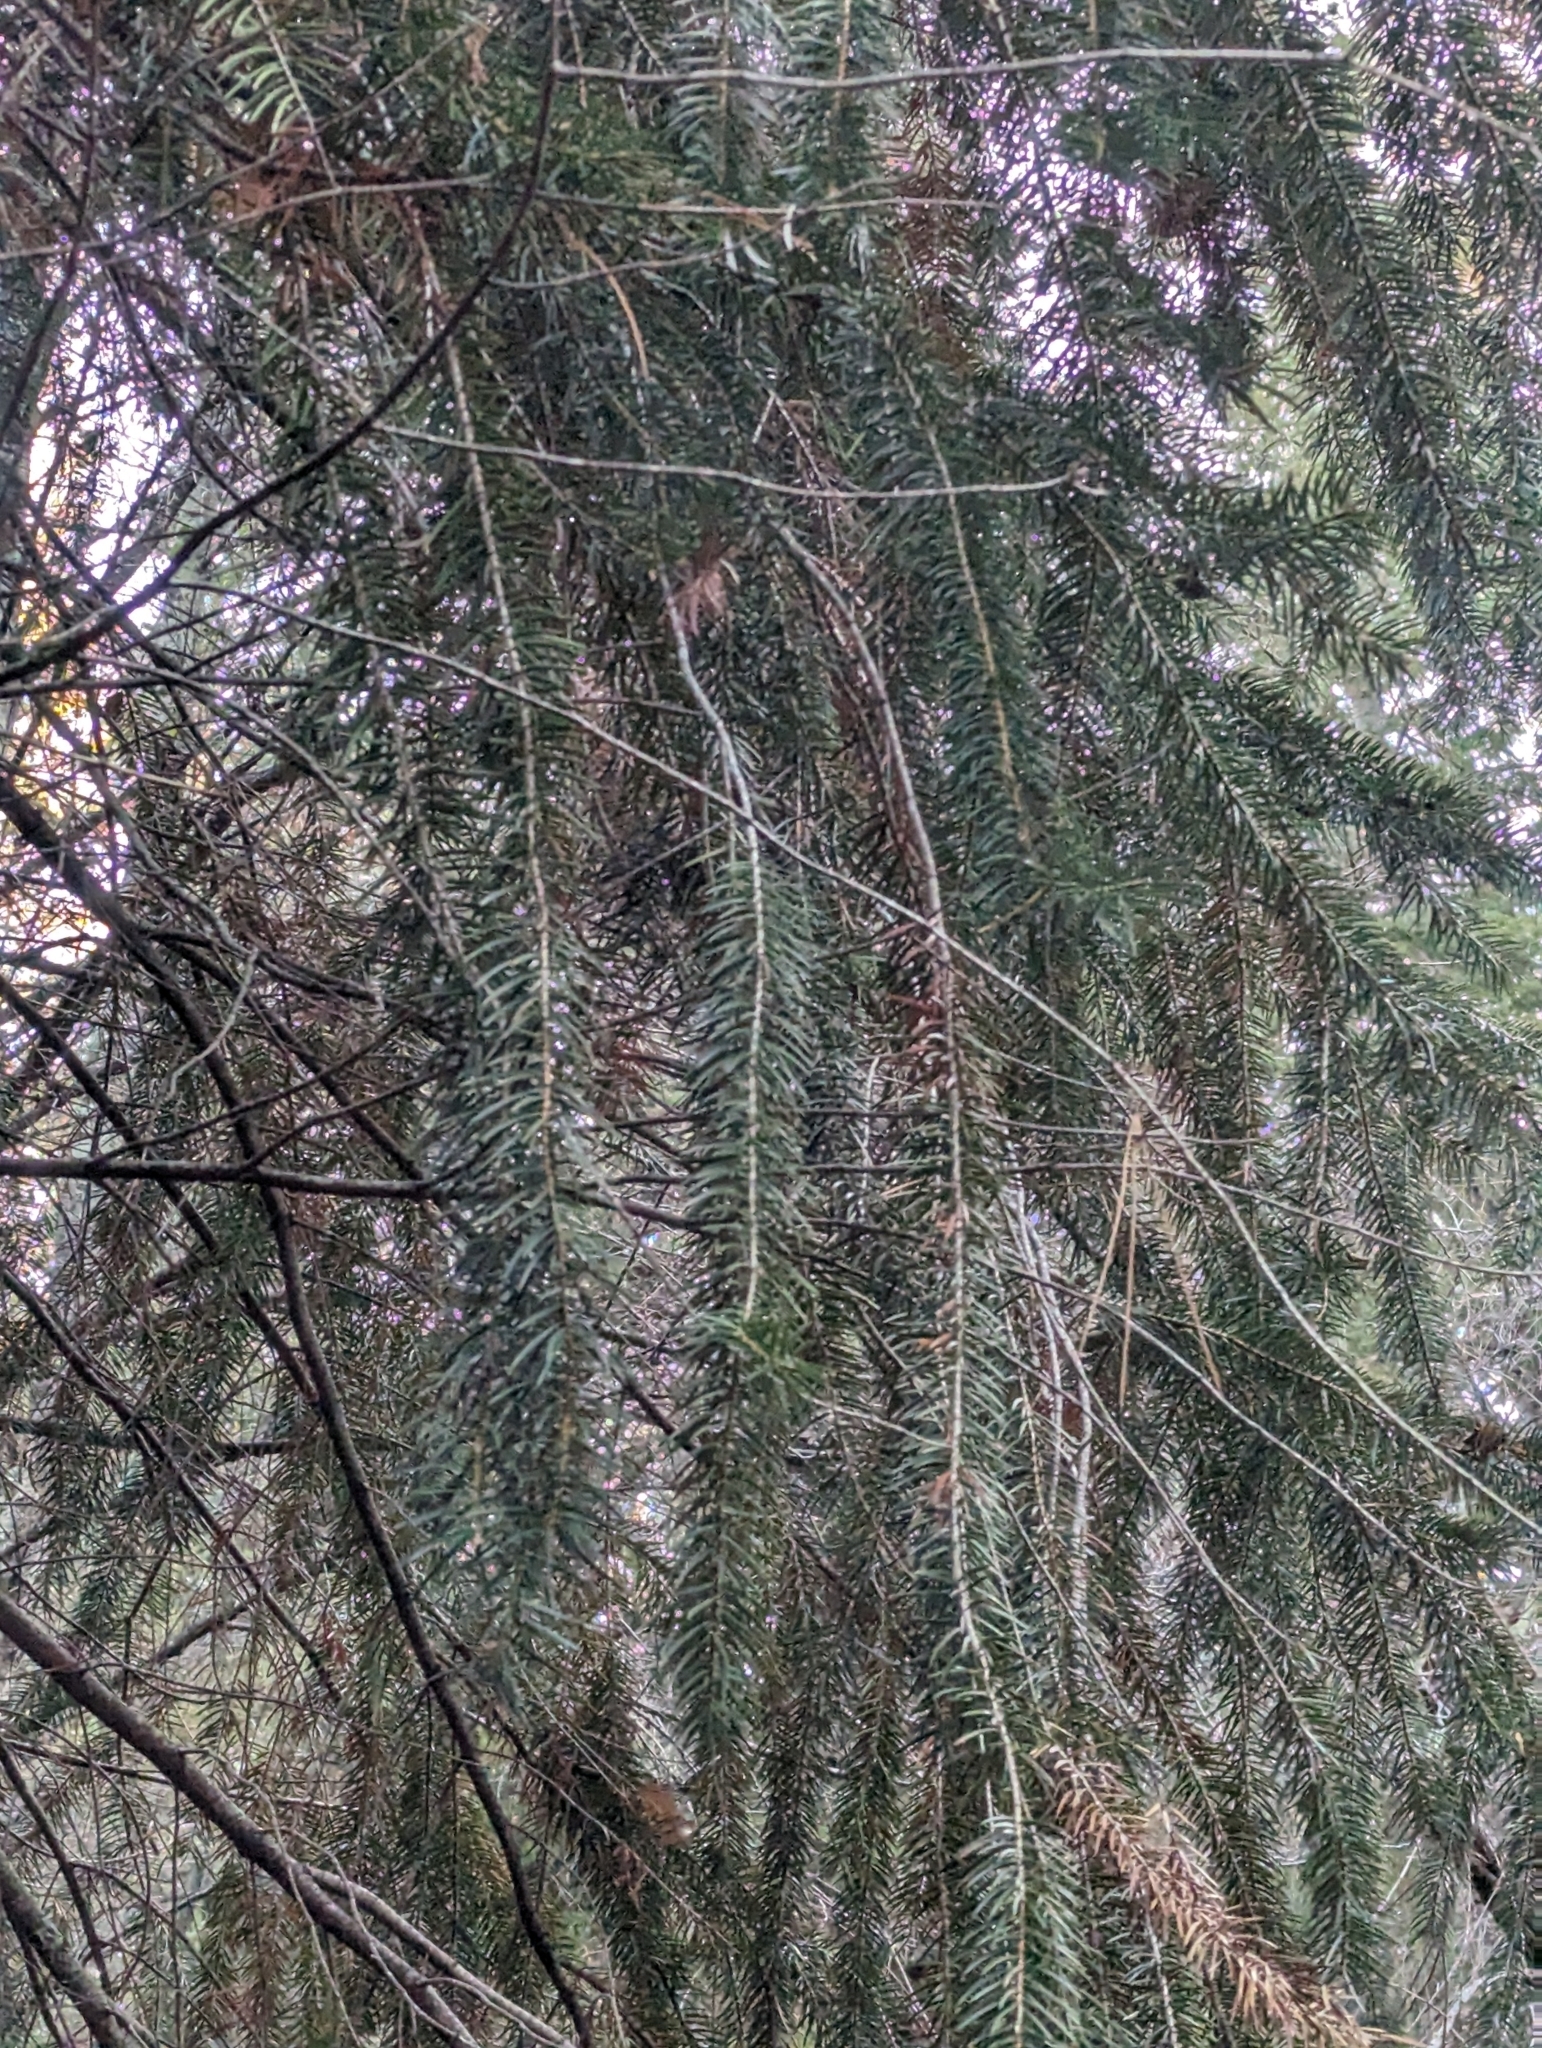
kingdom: Plantae
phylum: Tracheophyta
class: Pinopsida
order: Pinales
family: Pinaceae
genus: Abies
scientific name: Abies bracteata
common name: Bristlecone fir
